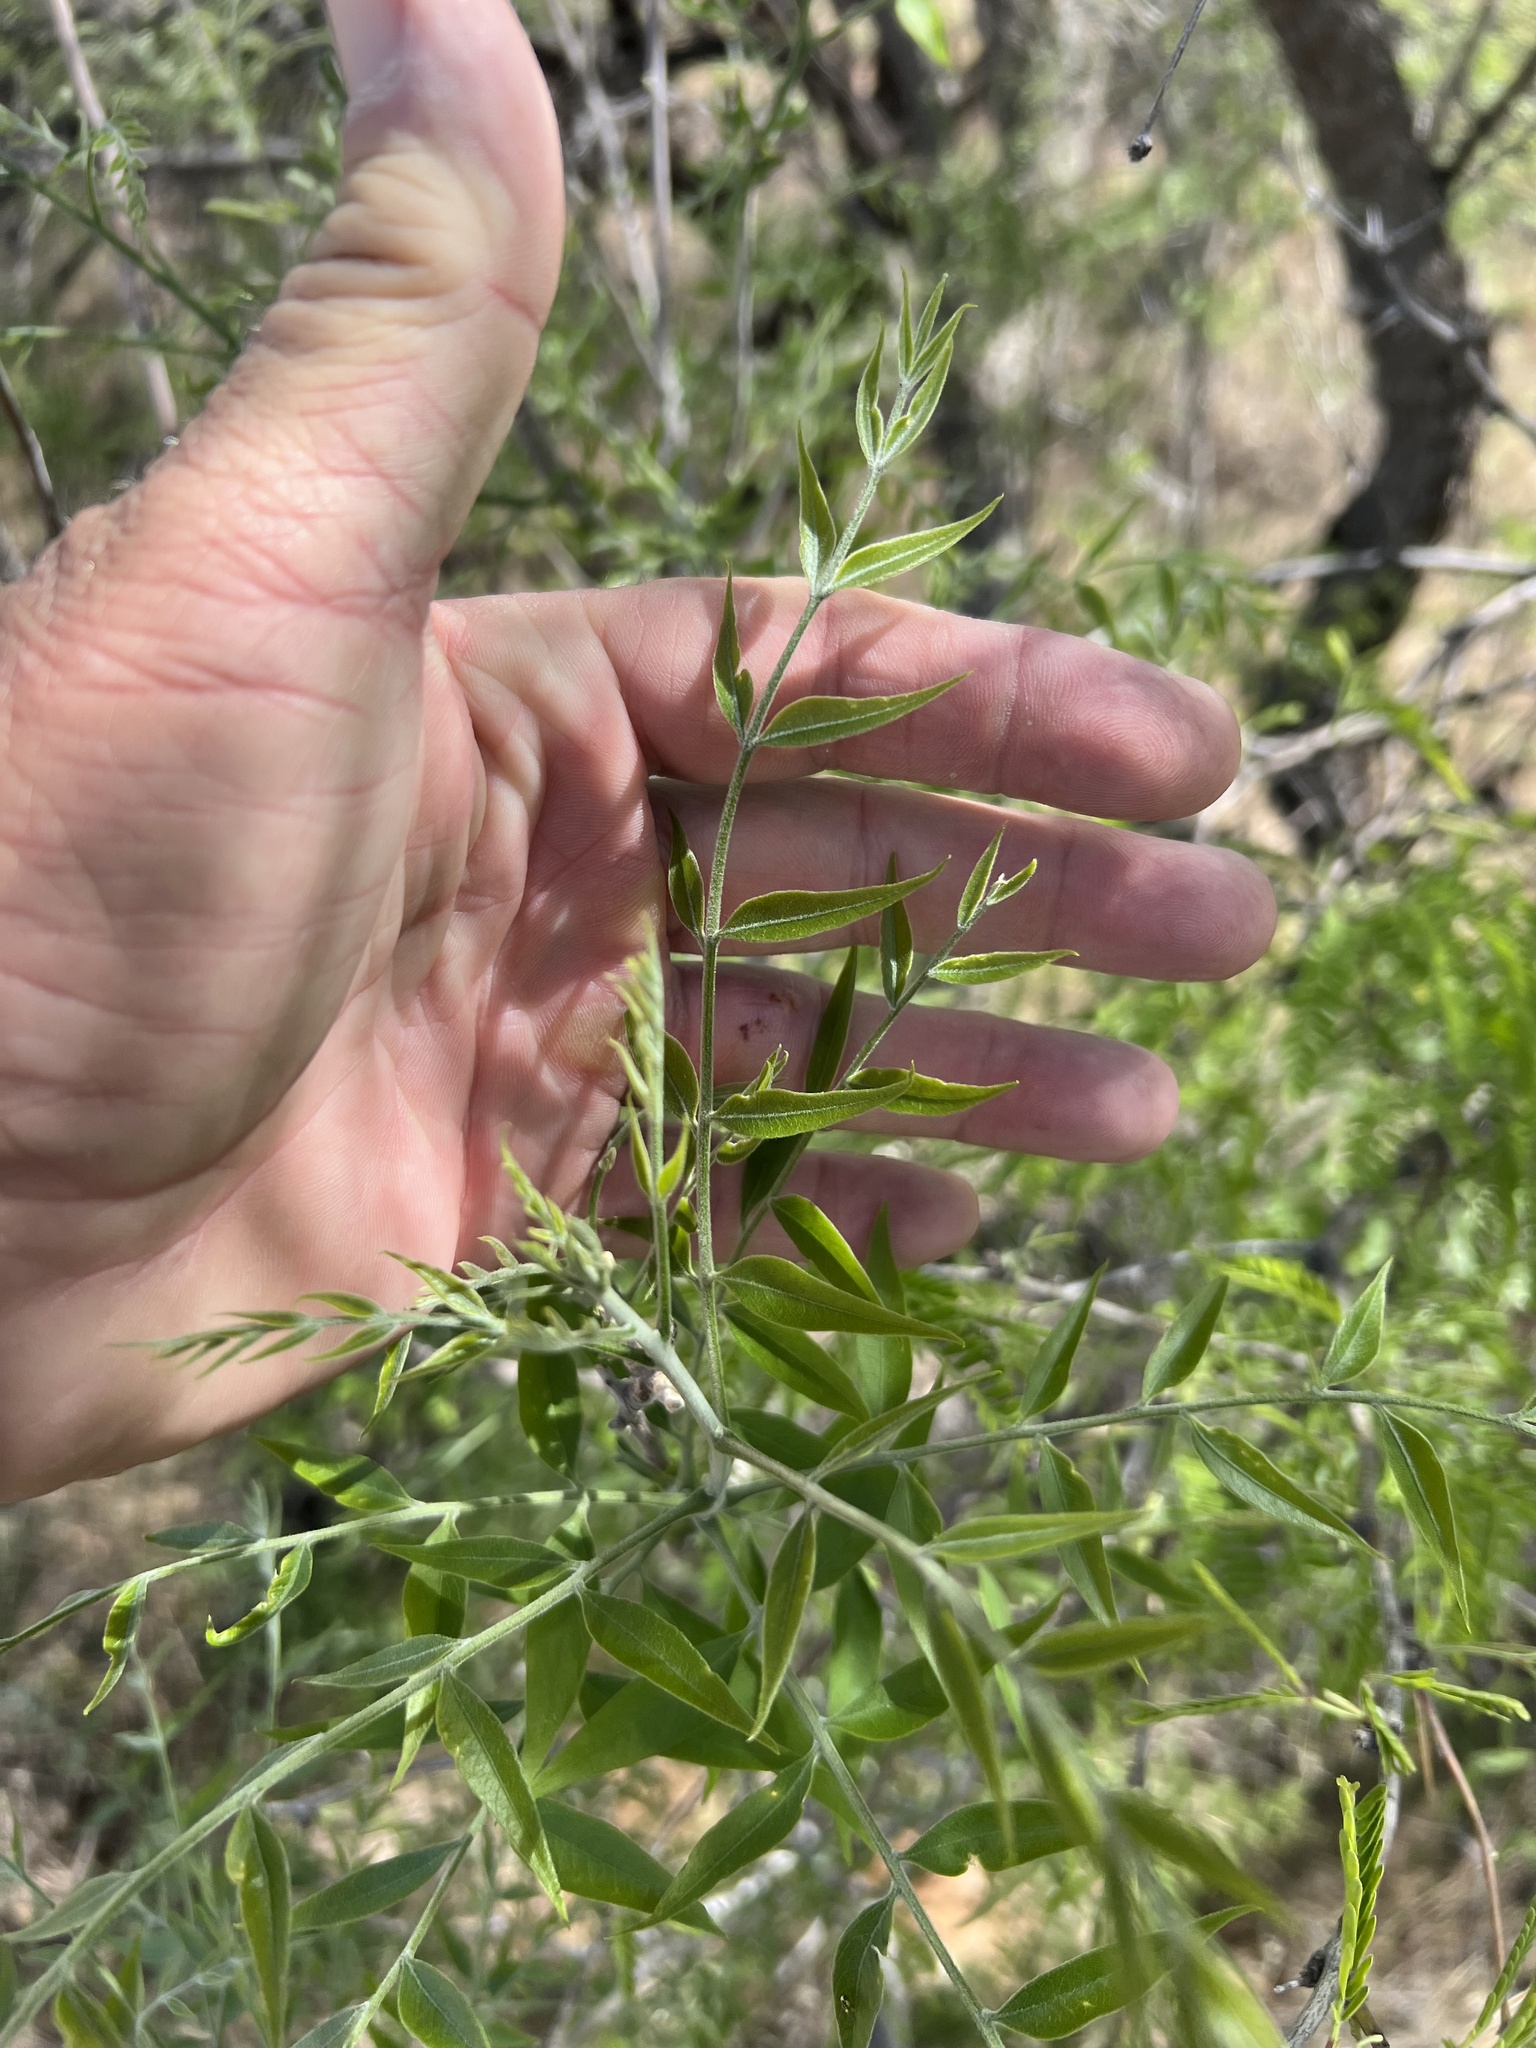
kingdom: Plantae
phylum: Tracheophyta
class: Magnoliopsida
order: Sapindales
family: Sapindaceae
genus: Sapindus
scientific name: Sapindus drummondii
